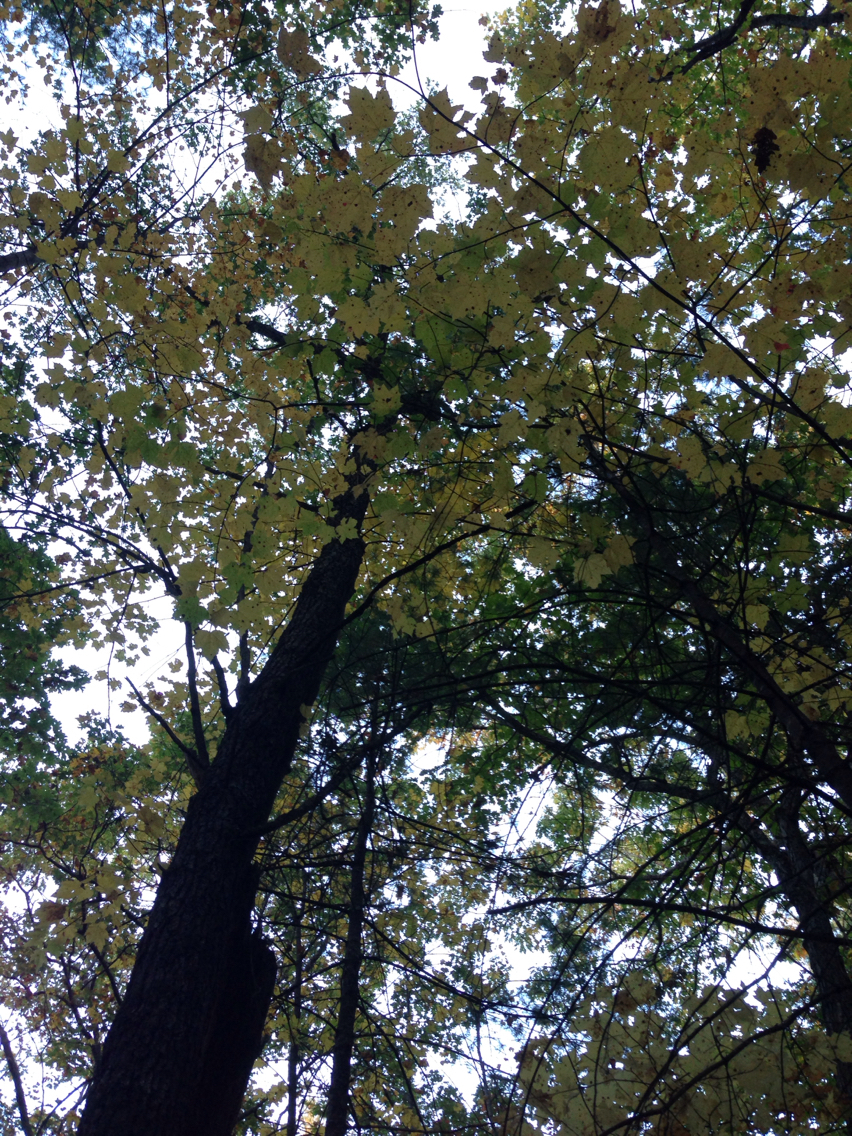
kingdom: Plantae
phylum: Tracheophyta
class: Magnoliopsida
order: Sapindales
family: Sapindaceae
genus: Acer
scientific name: Acer rubrum
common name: Red maple
